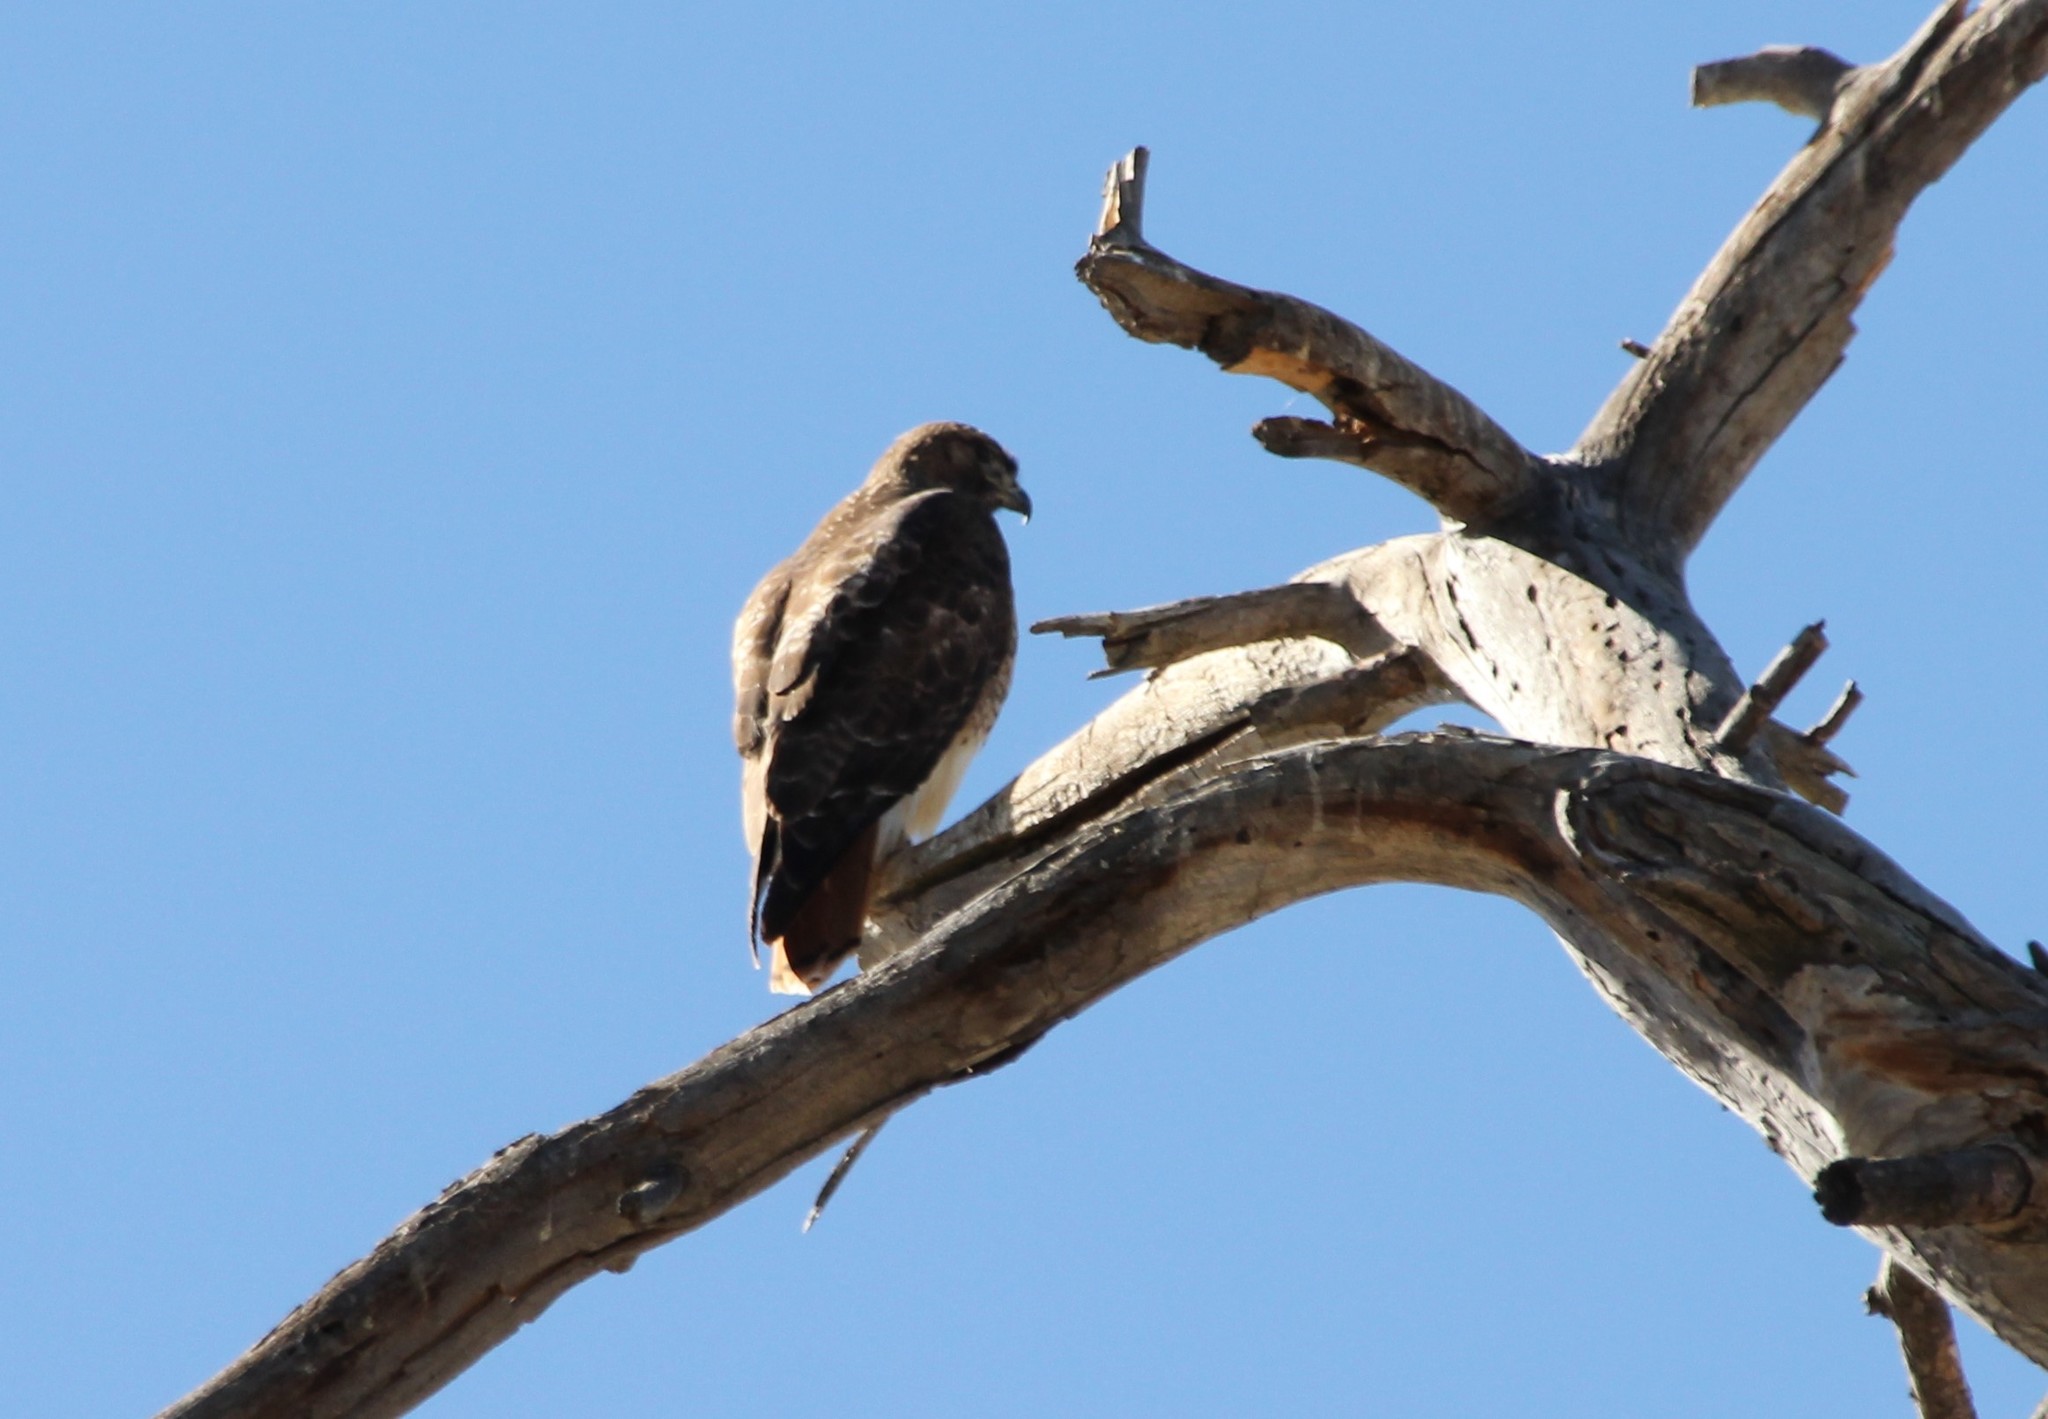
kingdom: Animalia
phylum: Chordata
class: Aves
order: Accipitriformes
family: Accipitridae
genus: Buteo
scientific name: Buteo jamaicensis
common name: Red-tailed hawk
